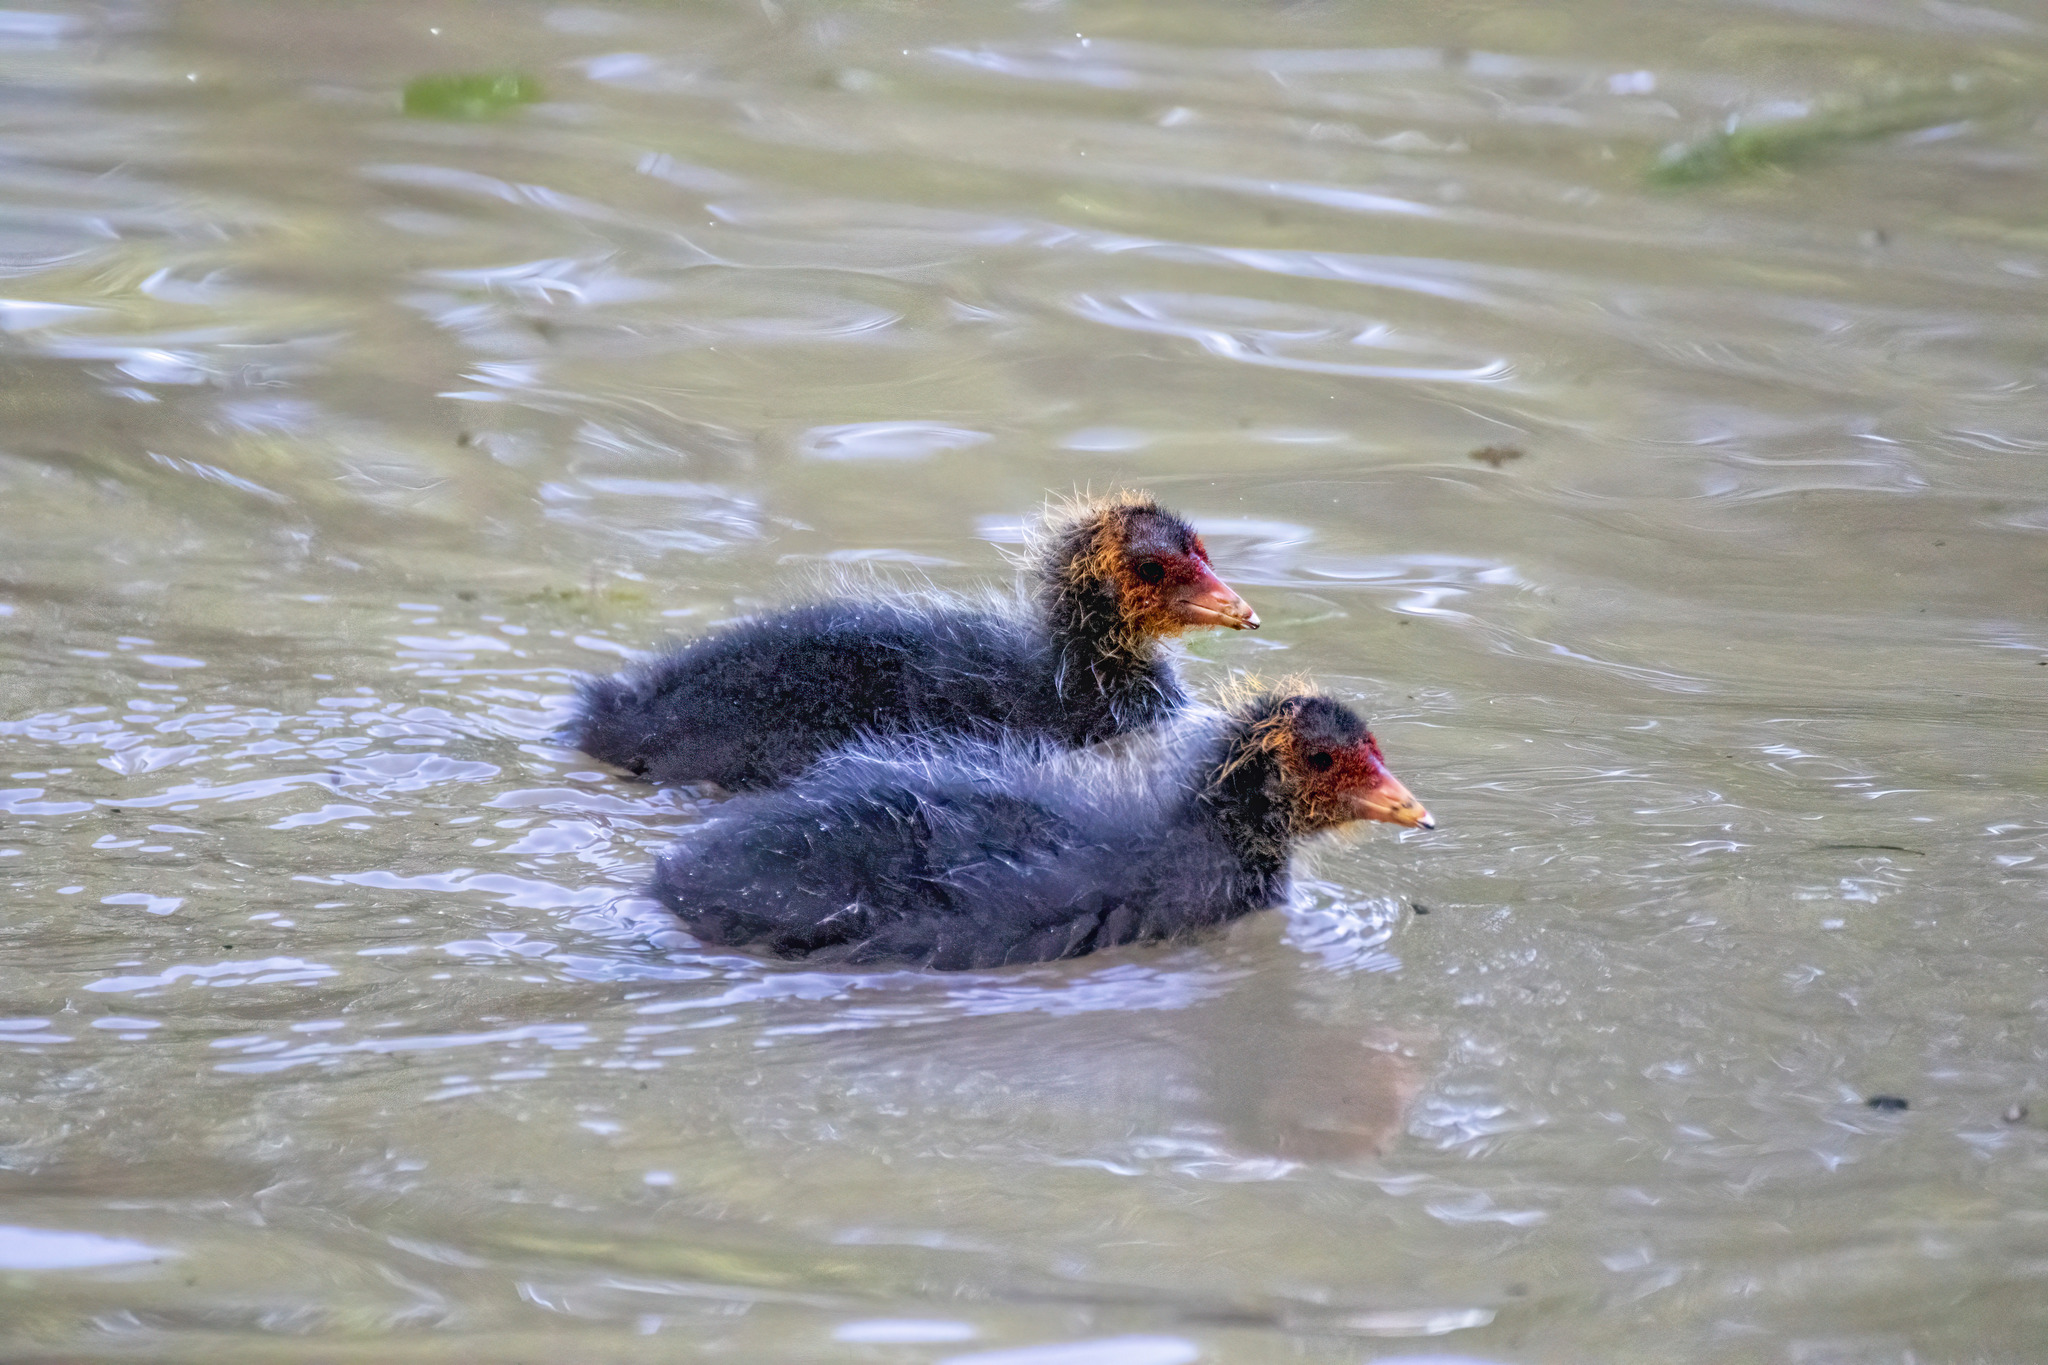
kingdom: Animalia
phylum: Chordata
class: Aves
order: Gruiformes
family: Rallidae
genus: Fulica
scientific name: Fulica atra
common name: Eurasian coot
